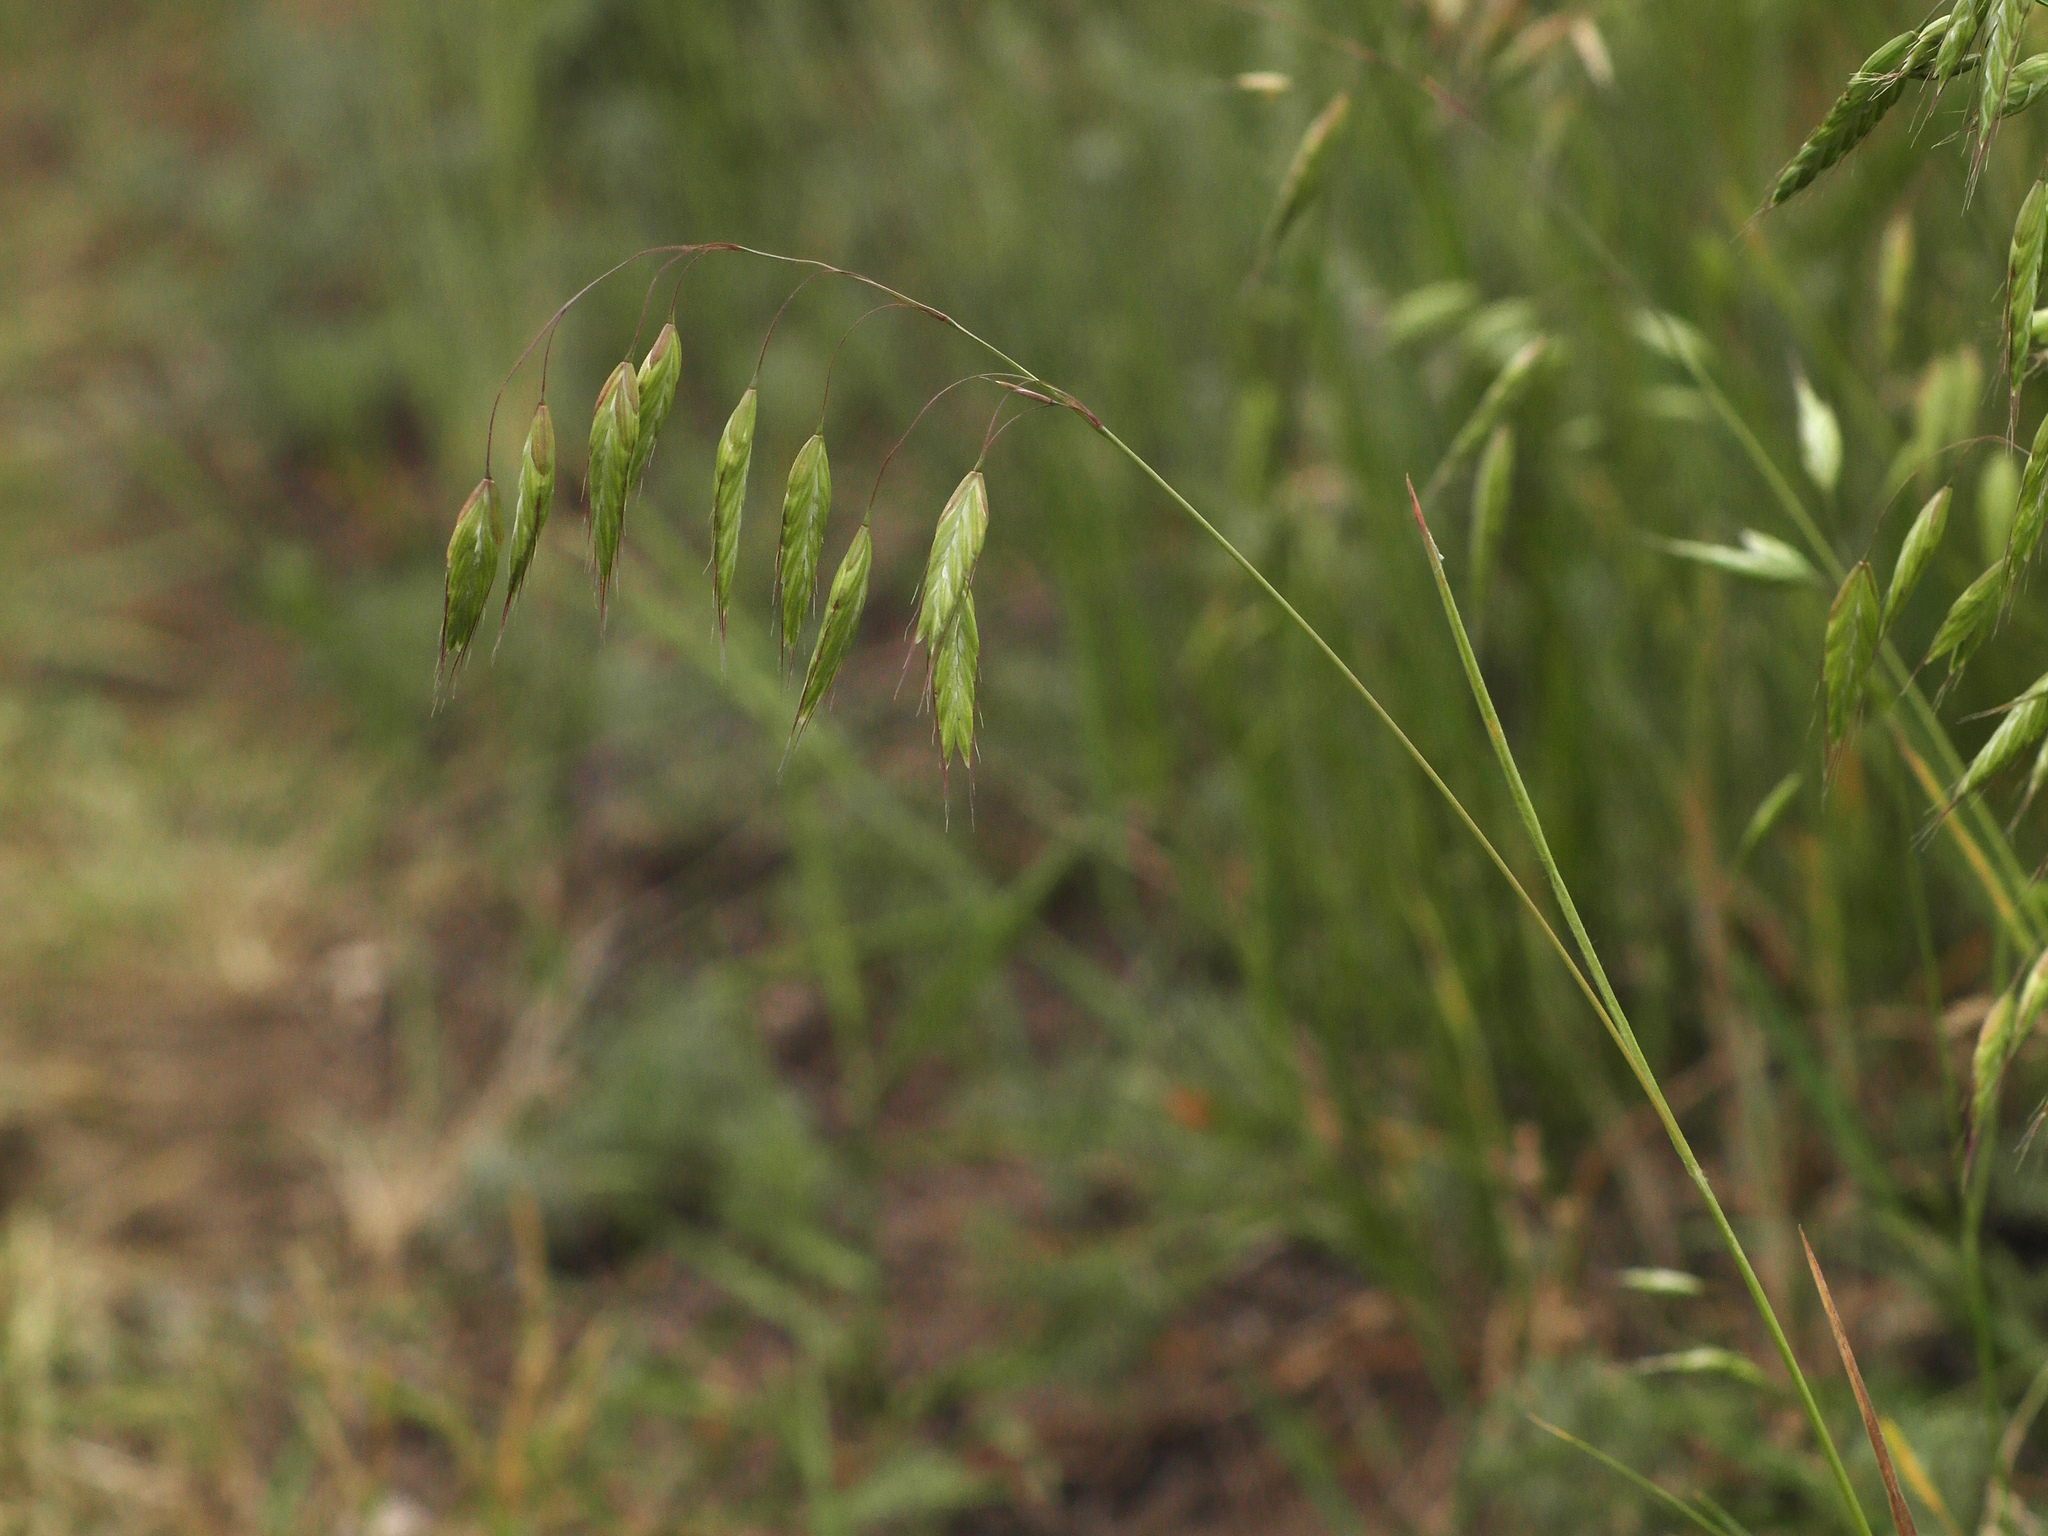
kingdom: Plantae
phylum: Tracheophyta
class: Liliopsida
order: Poales
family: Poaceae
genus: Bromus
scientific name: Bromus squarrosus
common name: Corn brome
